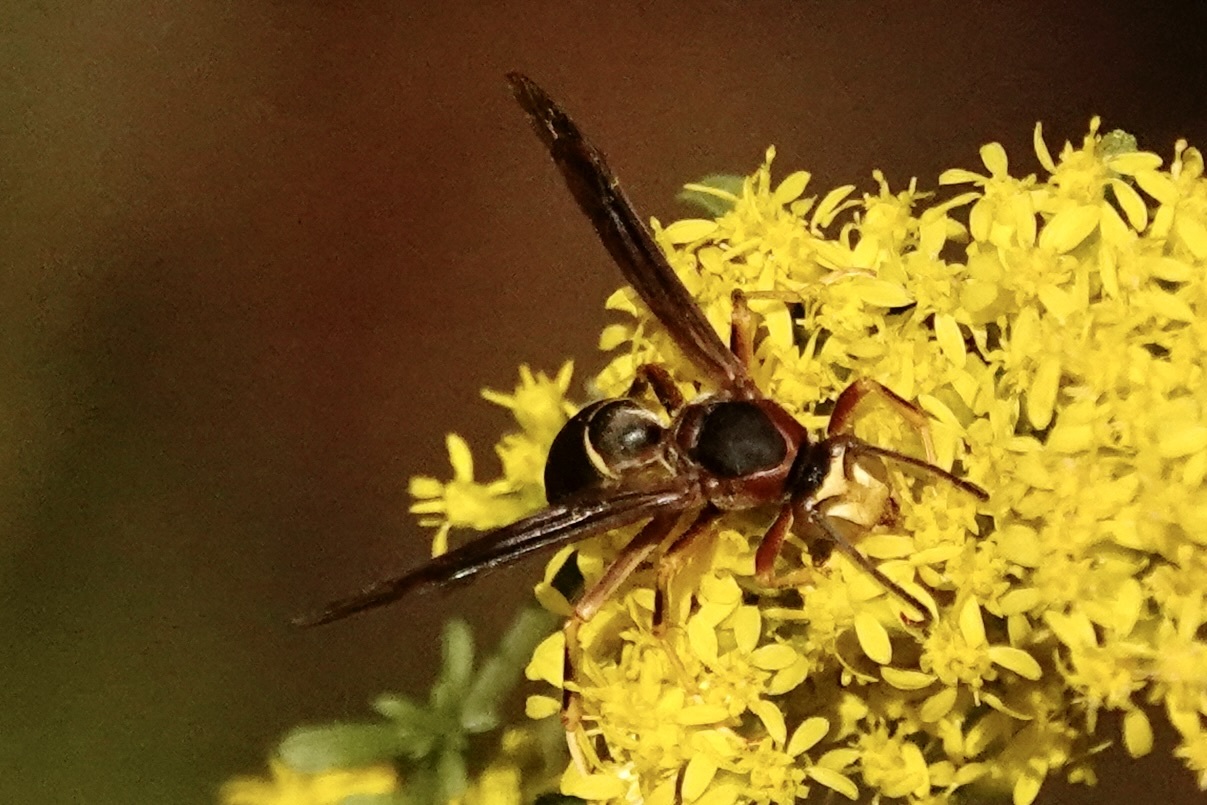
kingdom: Animalia
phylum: Arthropoda
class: Insecta
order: Hymenoptera
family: Eumenidae
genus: Polistes
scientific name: Polistes metricus
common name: Metric paper wasp
